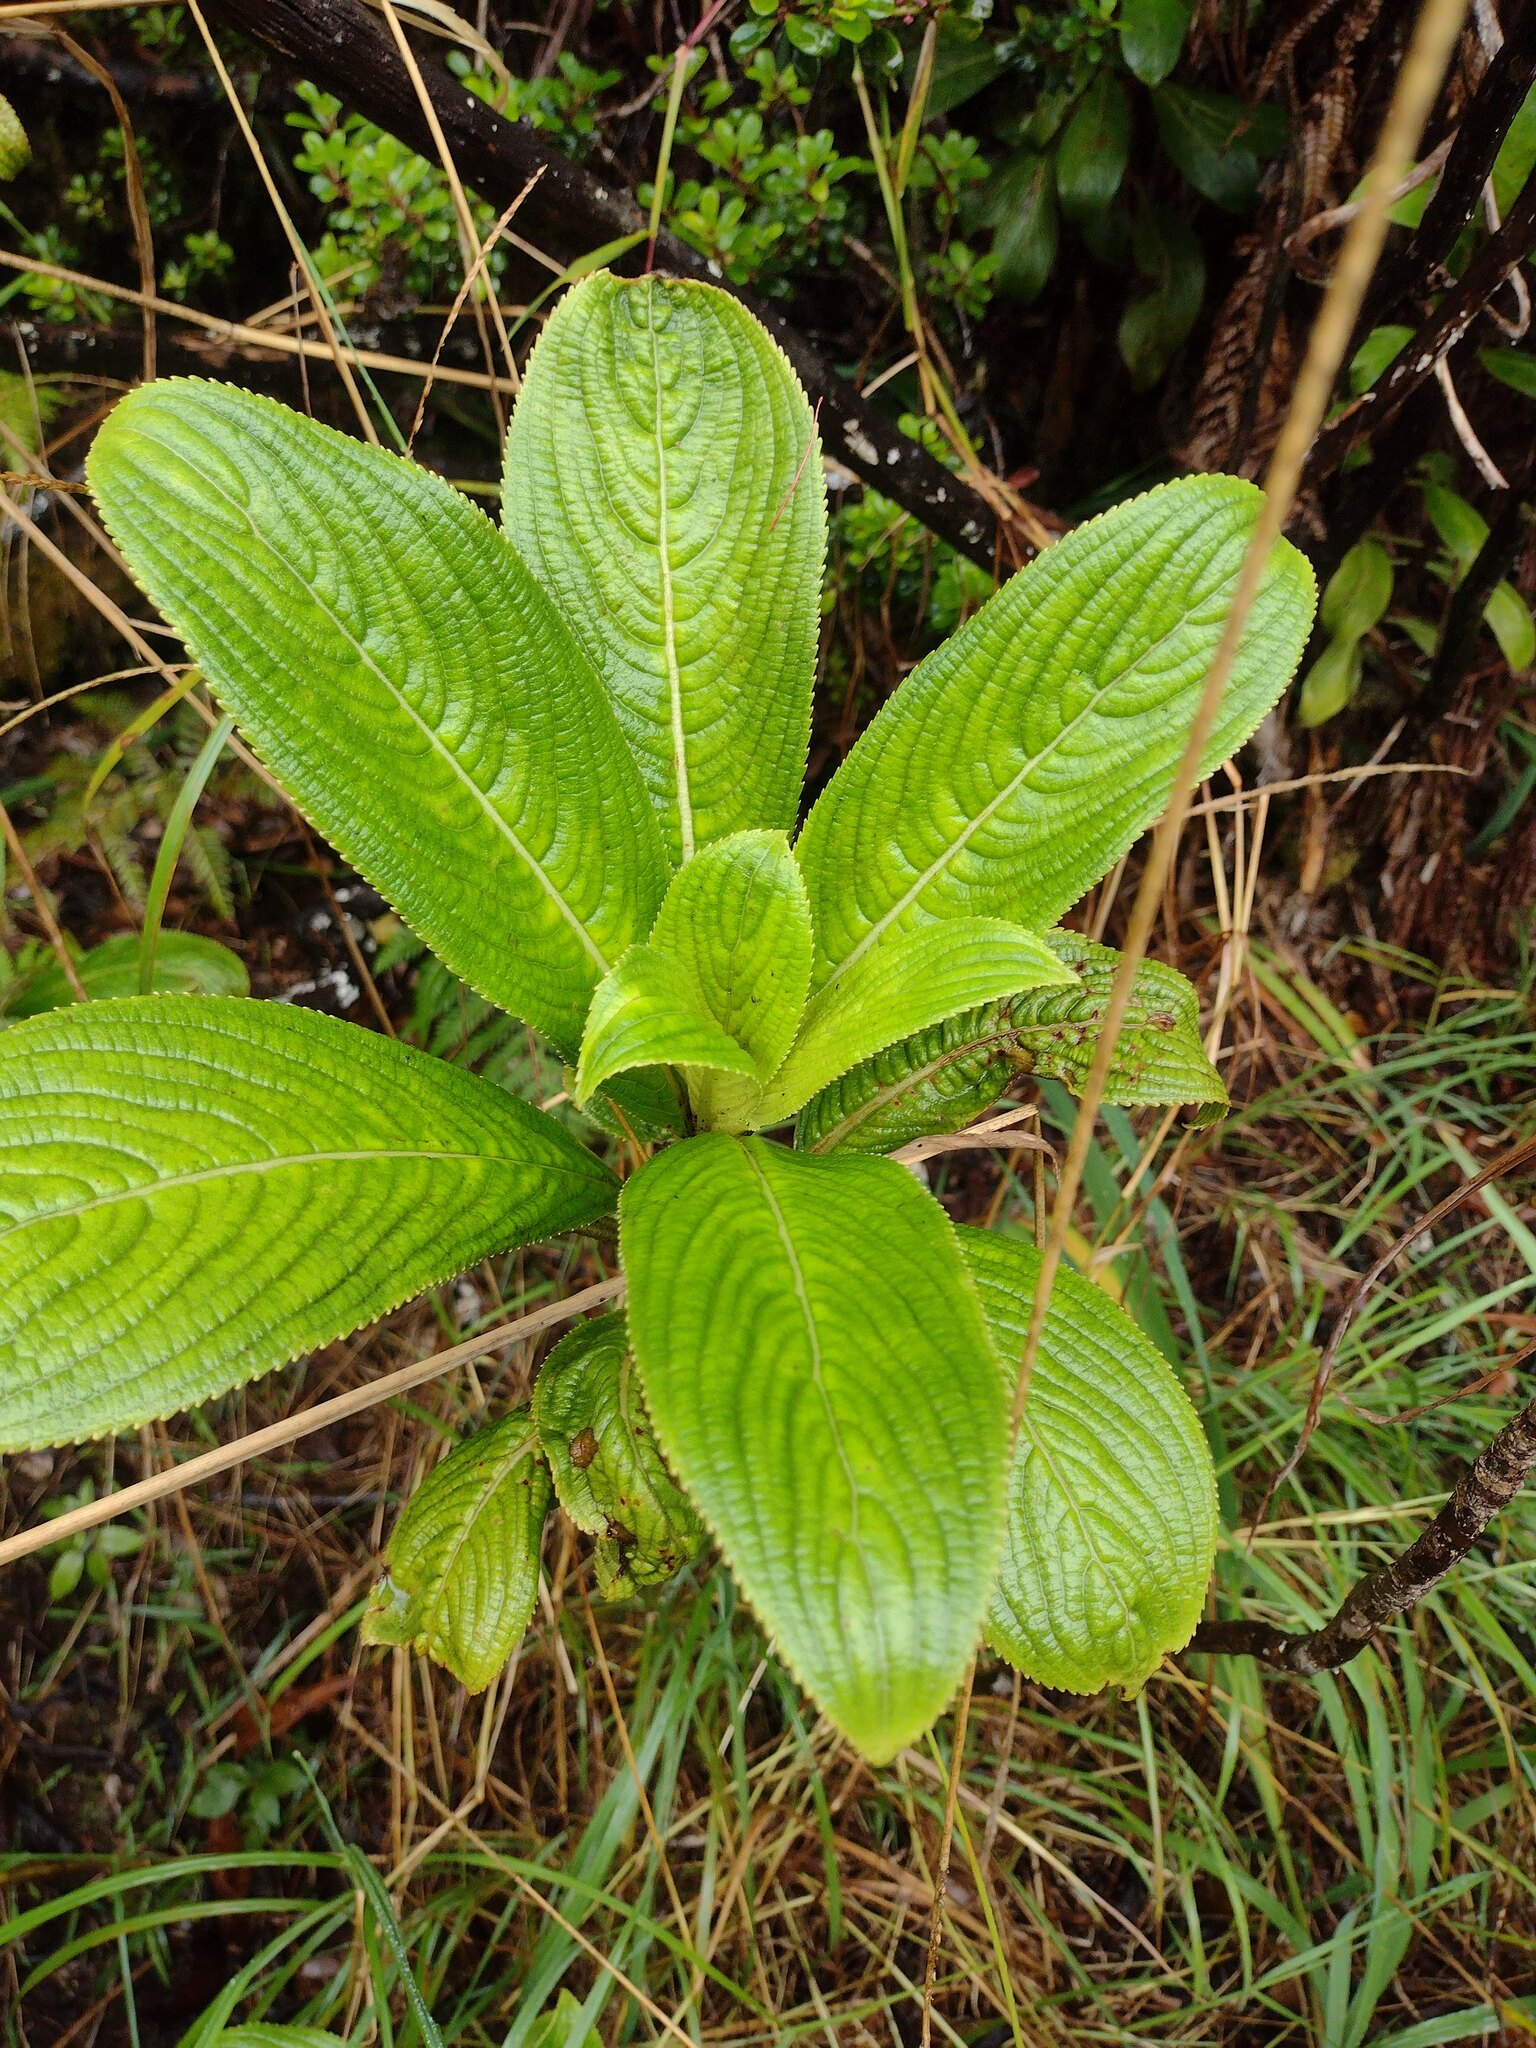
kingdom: Plantae
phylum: Tracheophyta
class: Magnoliopsida
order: Cornales
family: Hydrangeaceae
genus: Hydrangea
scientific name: Hydrangea arguta
